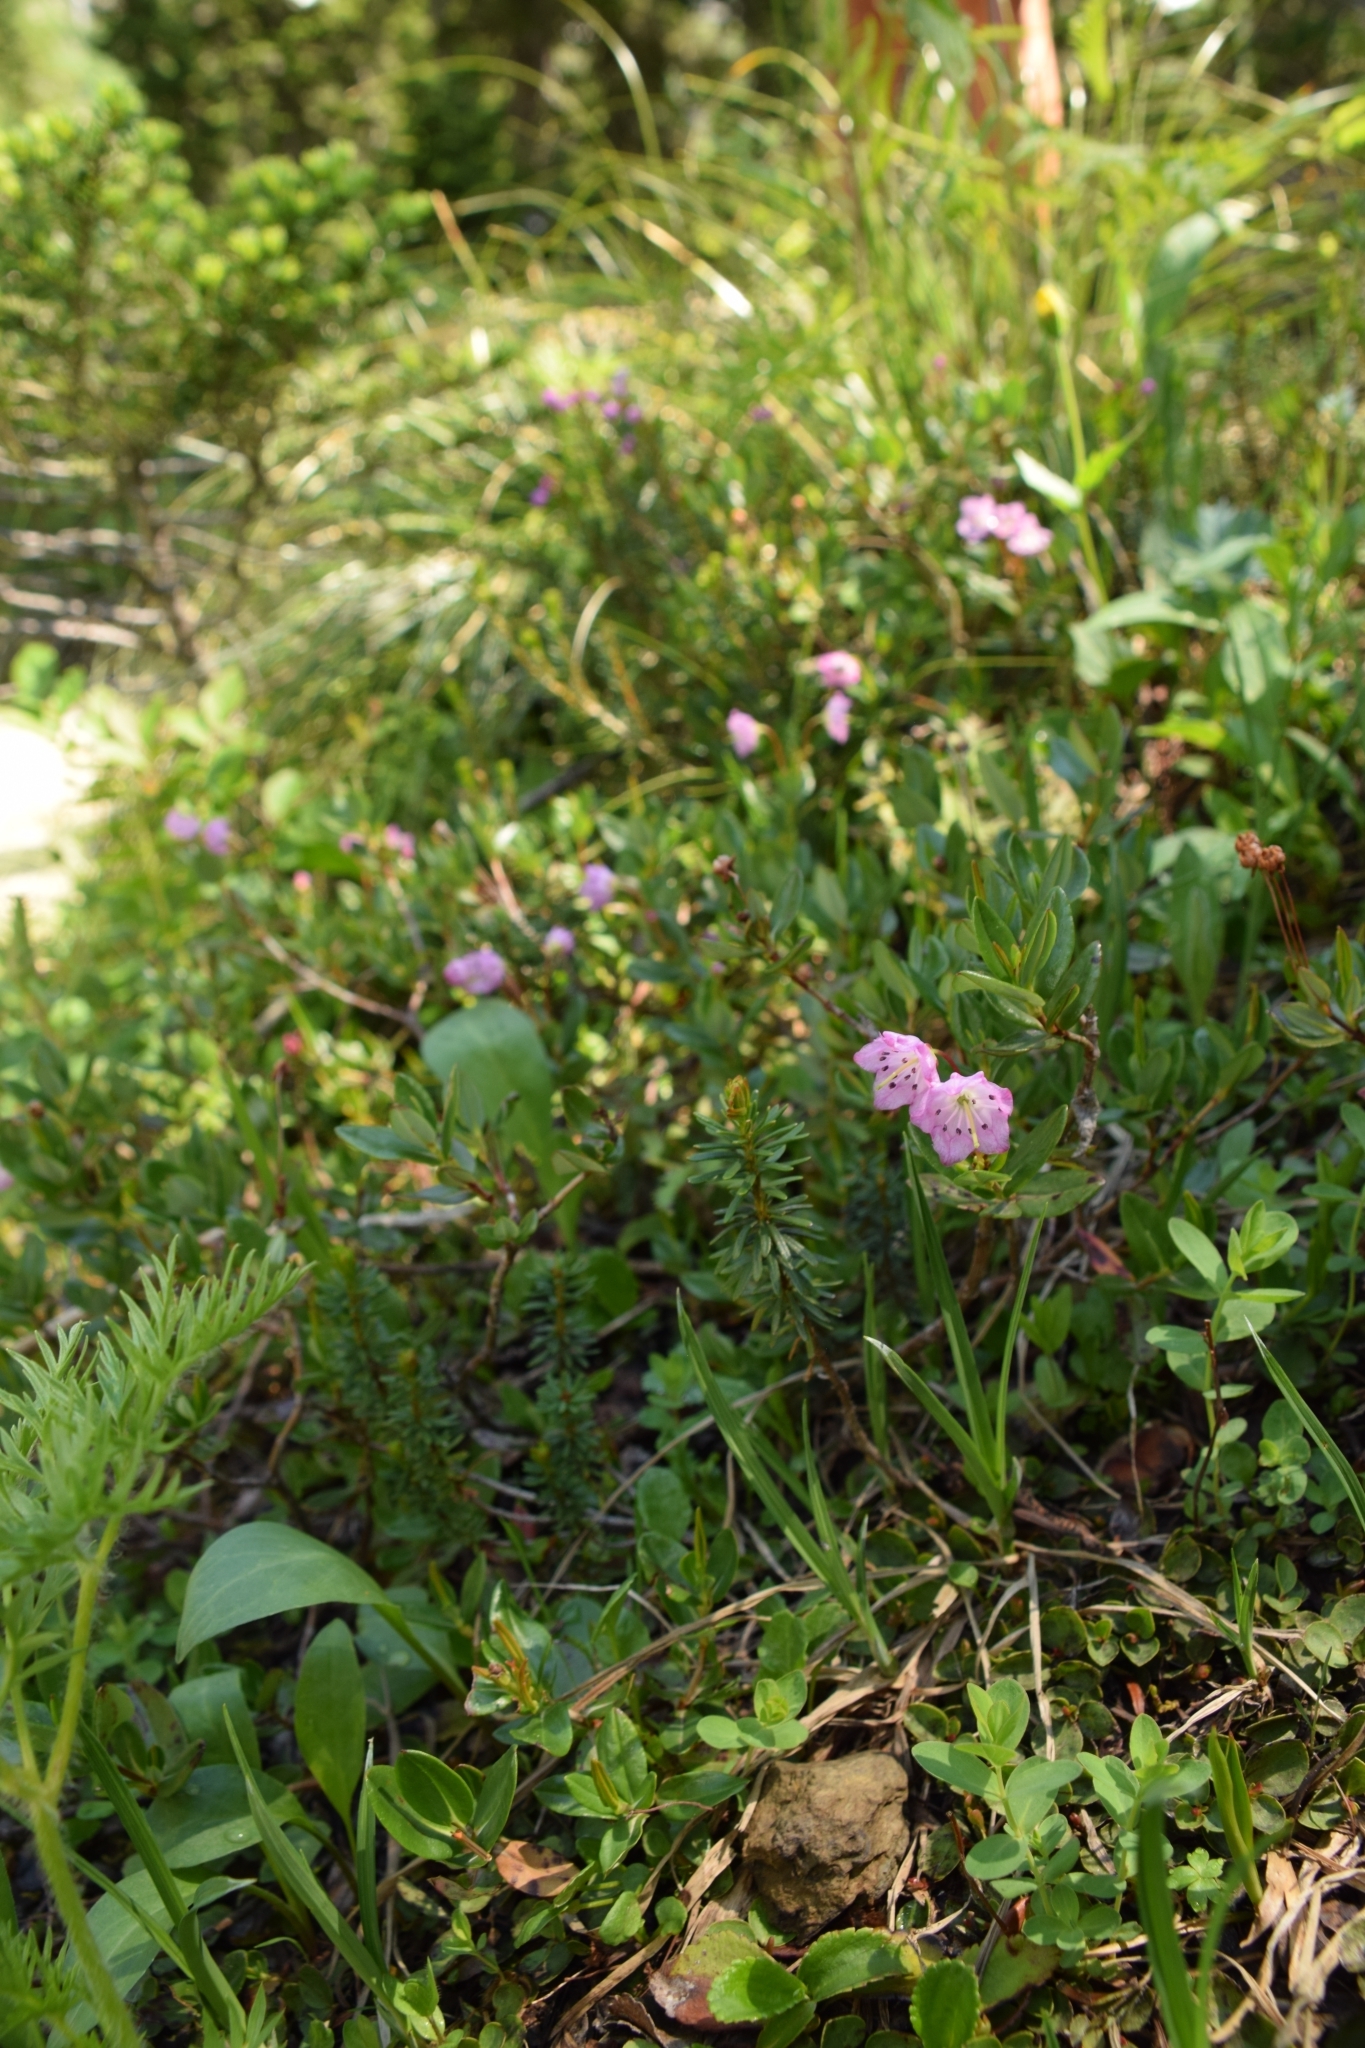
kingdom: Plantae
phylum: Tracheophyta
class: Magnoliopsida
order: Ericales
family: Ericaceae
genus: Kalmia
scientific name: Kalmia microphylla
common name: Alpine bog laurel
